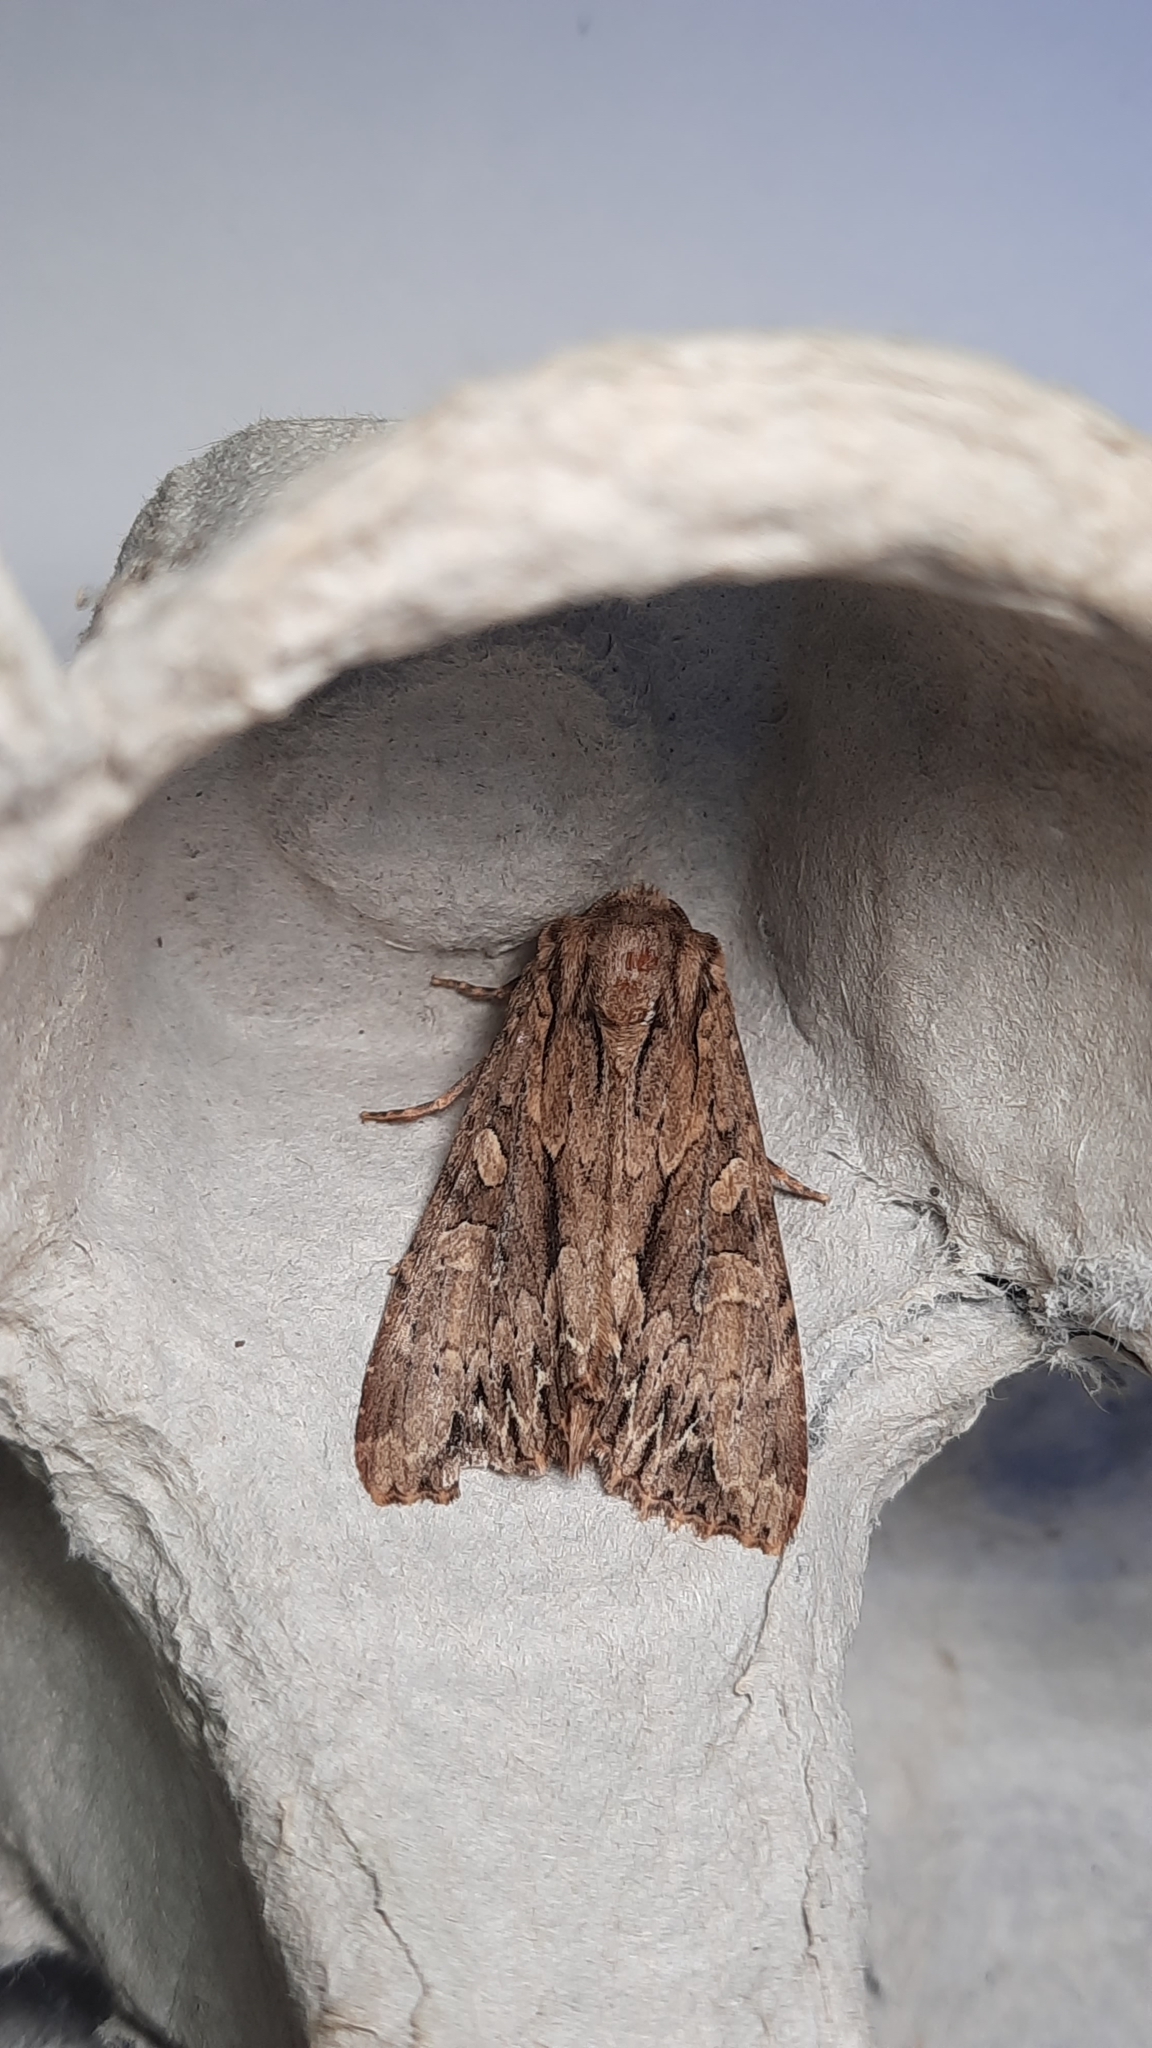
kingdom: Animalia
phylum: Arthropoda
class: Insecta
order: Lepidoptera
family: Noctuidae
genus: Apamea
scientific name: Apamea monoglypha
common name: Dark arches
